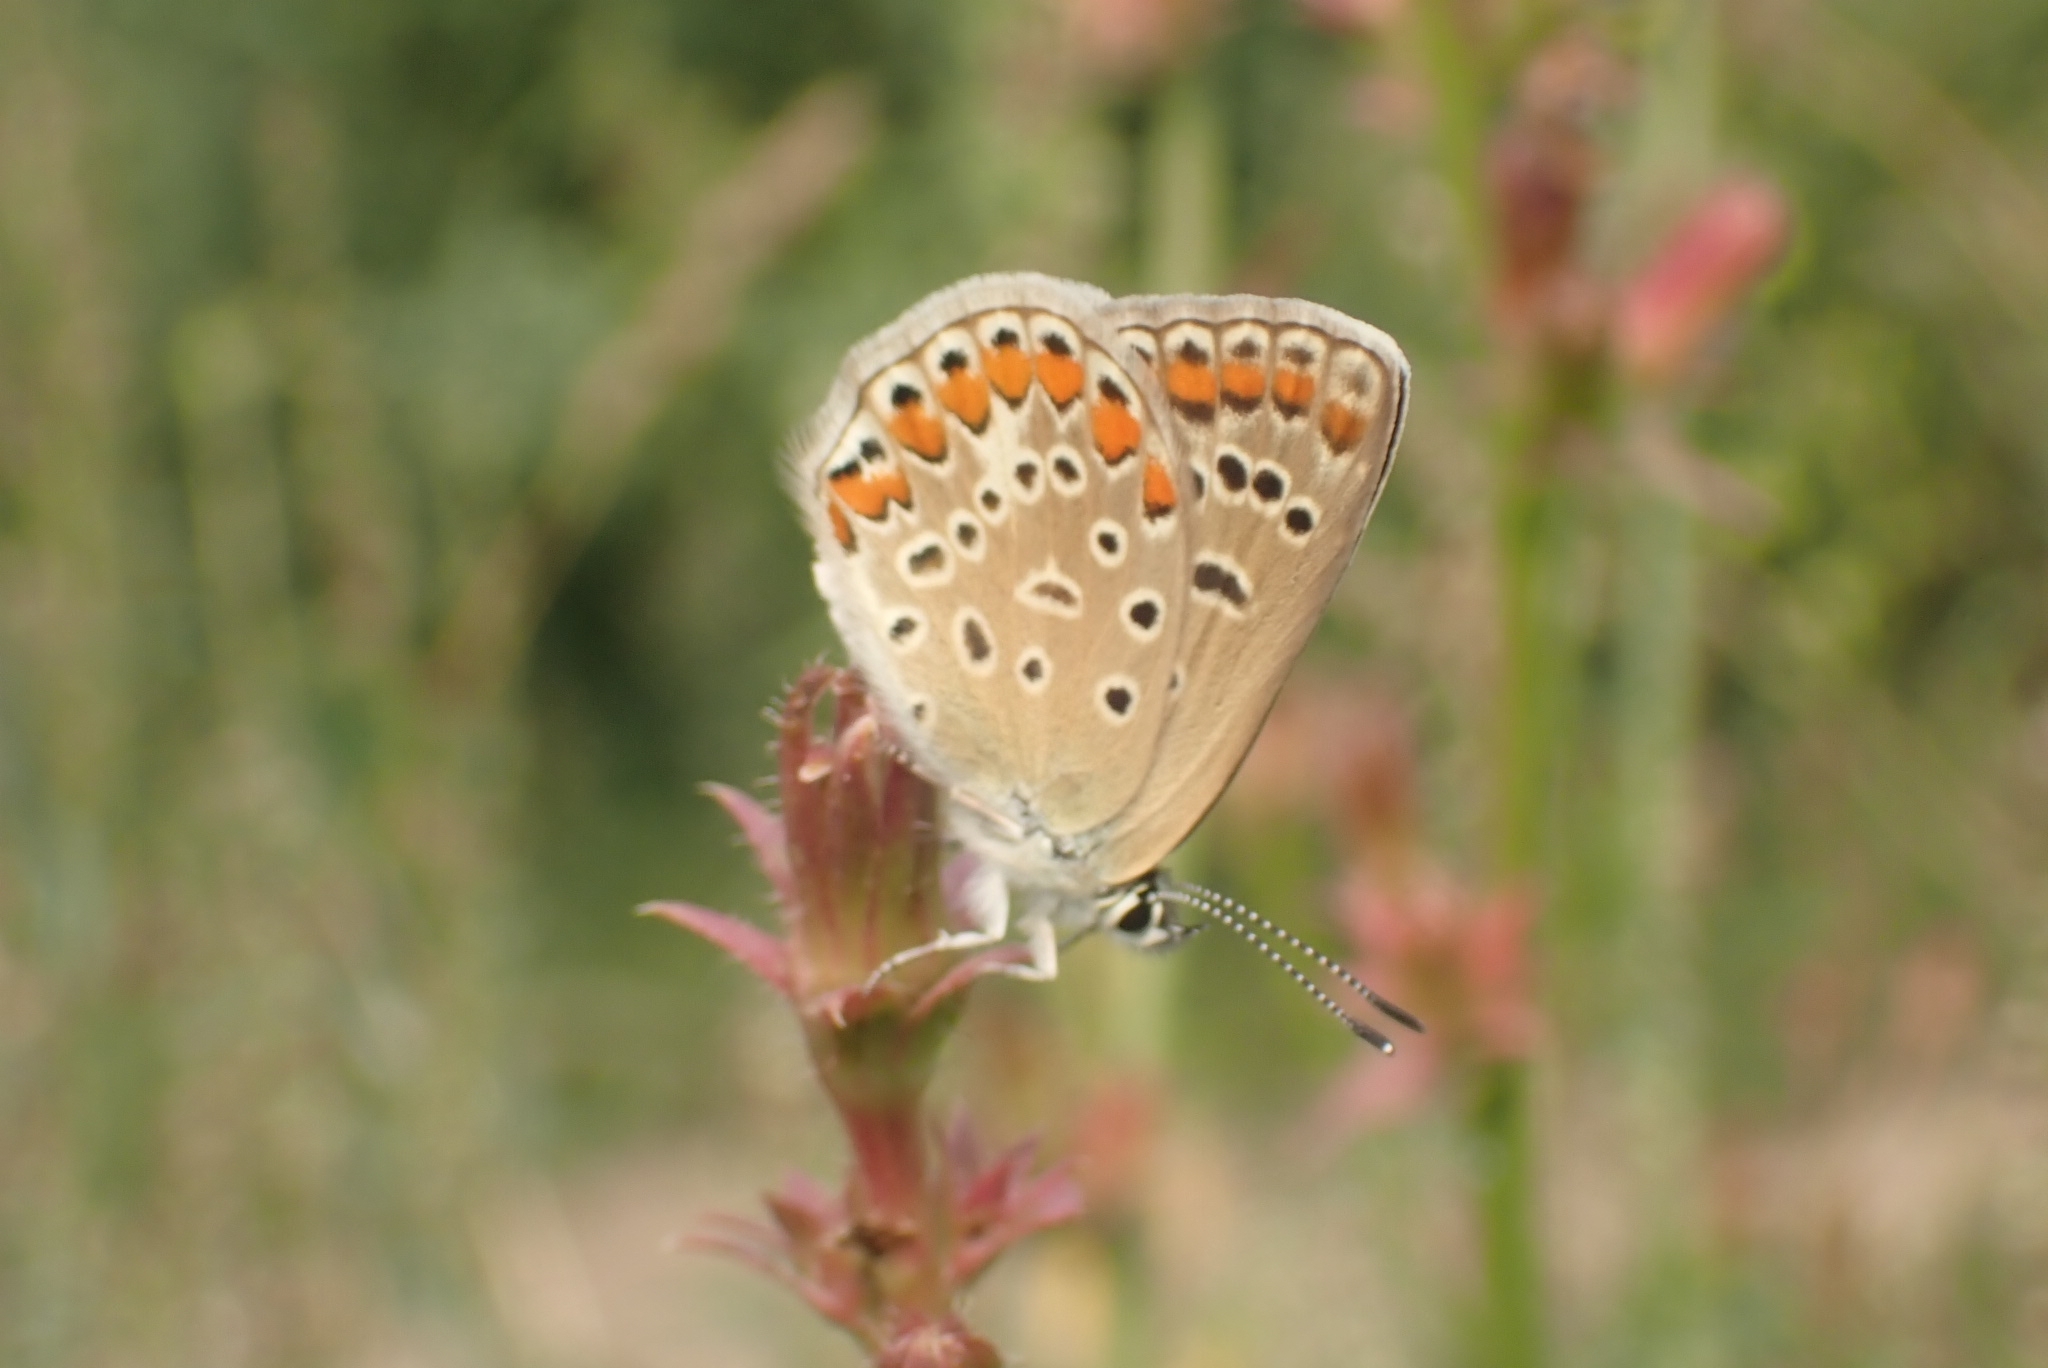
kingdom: Animalia
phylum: Arthropoda
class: Insecta
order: Lepidoptera
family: Lycaenidae
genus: Polyommatus
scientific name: Polyommatus icarus
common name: Common blue
